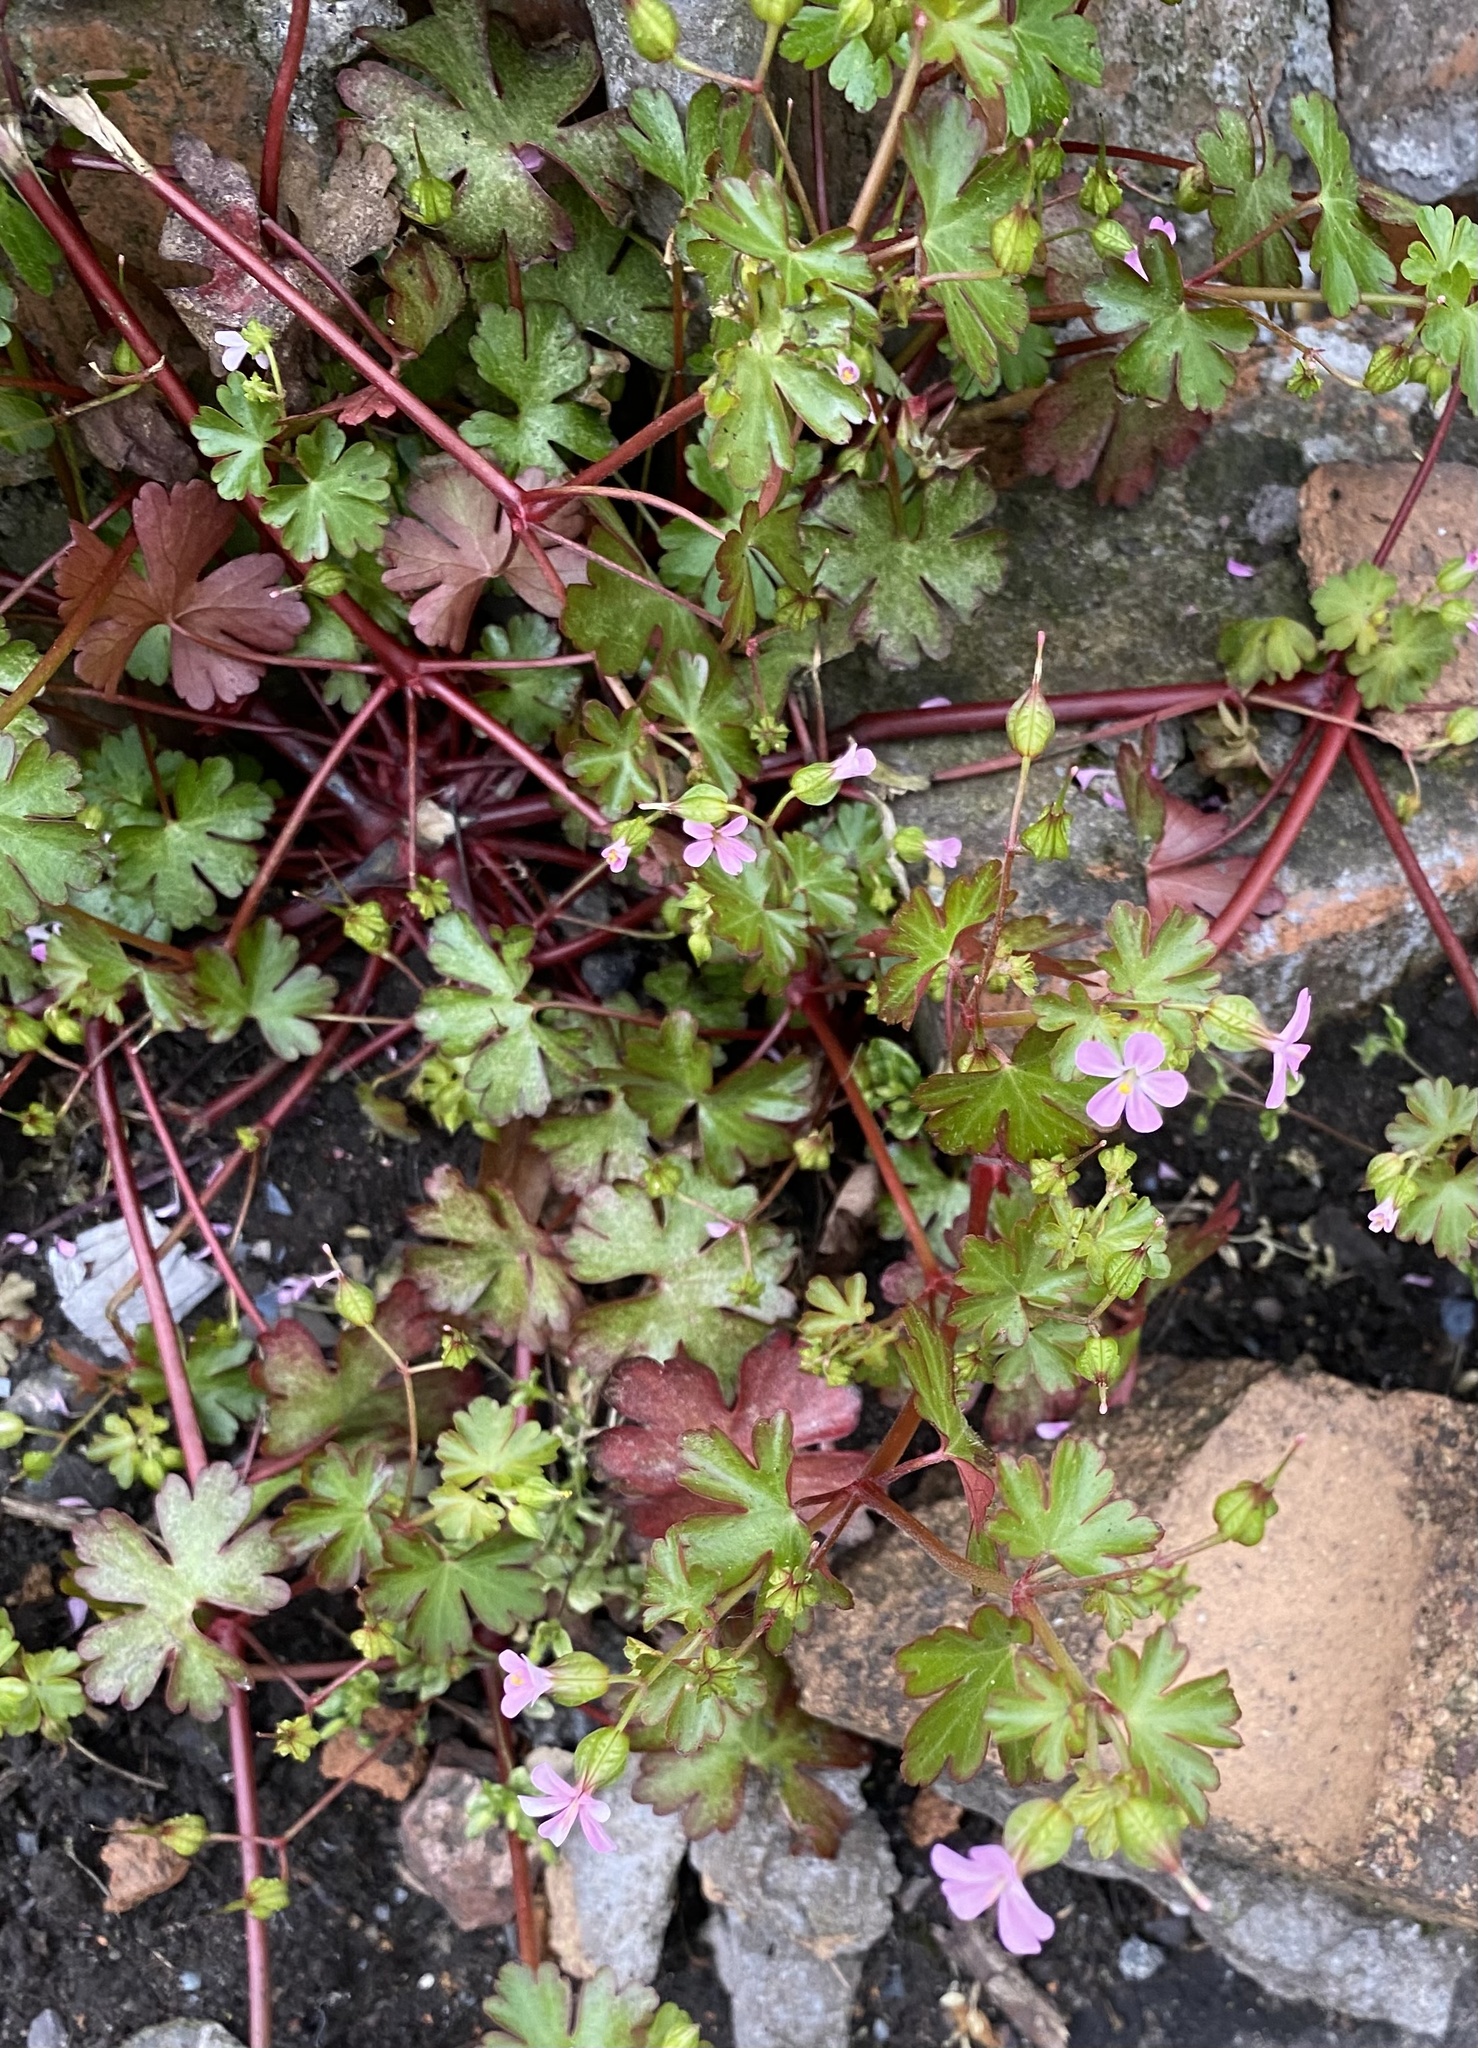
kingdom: Plantae
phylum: Tracheophyta
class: Magnoliopsida
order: Geraniales
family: Geraniaceae
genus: Geranium
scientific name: Geranium lucidum
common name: Shining crane's-bill
